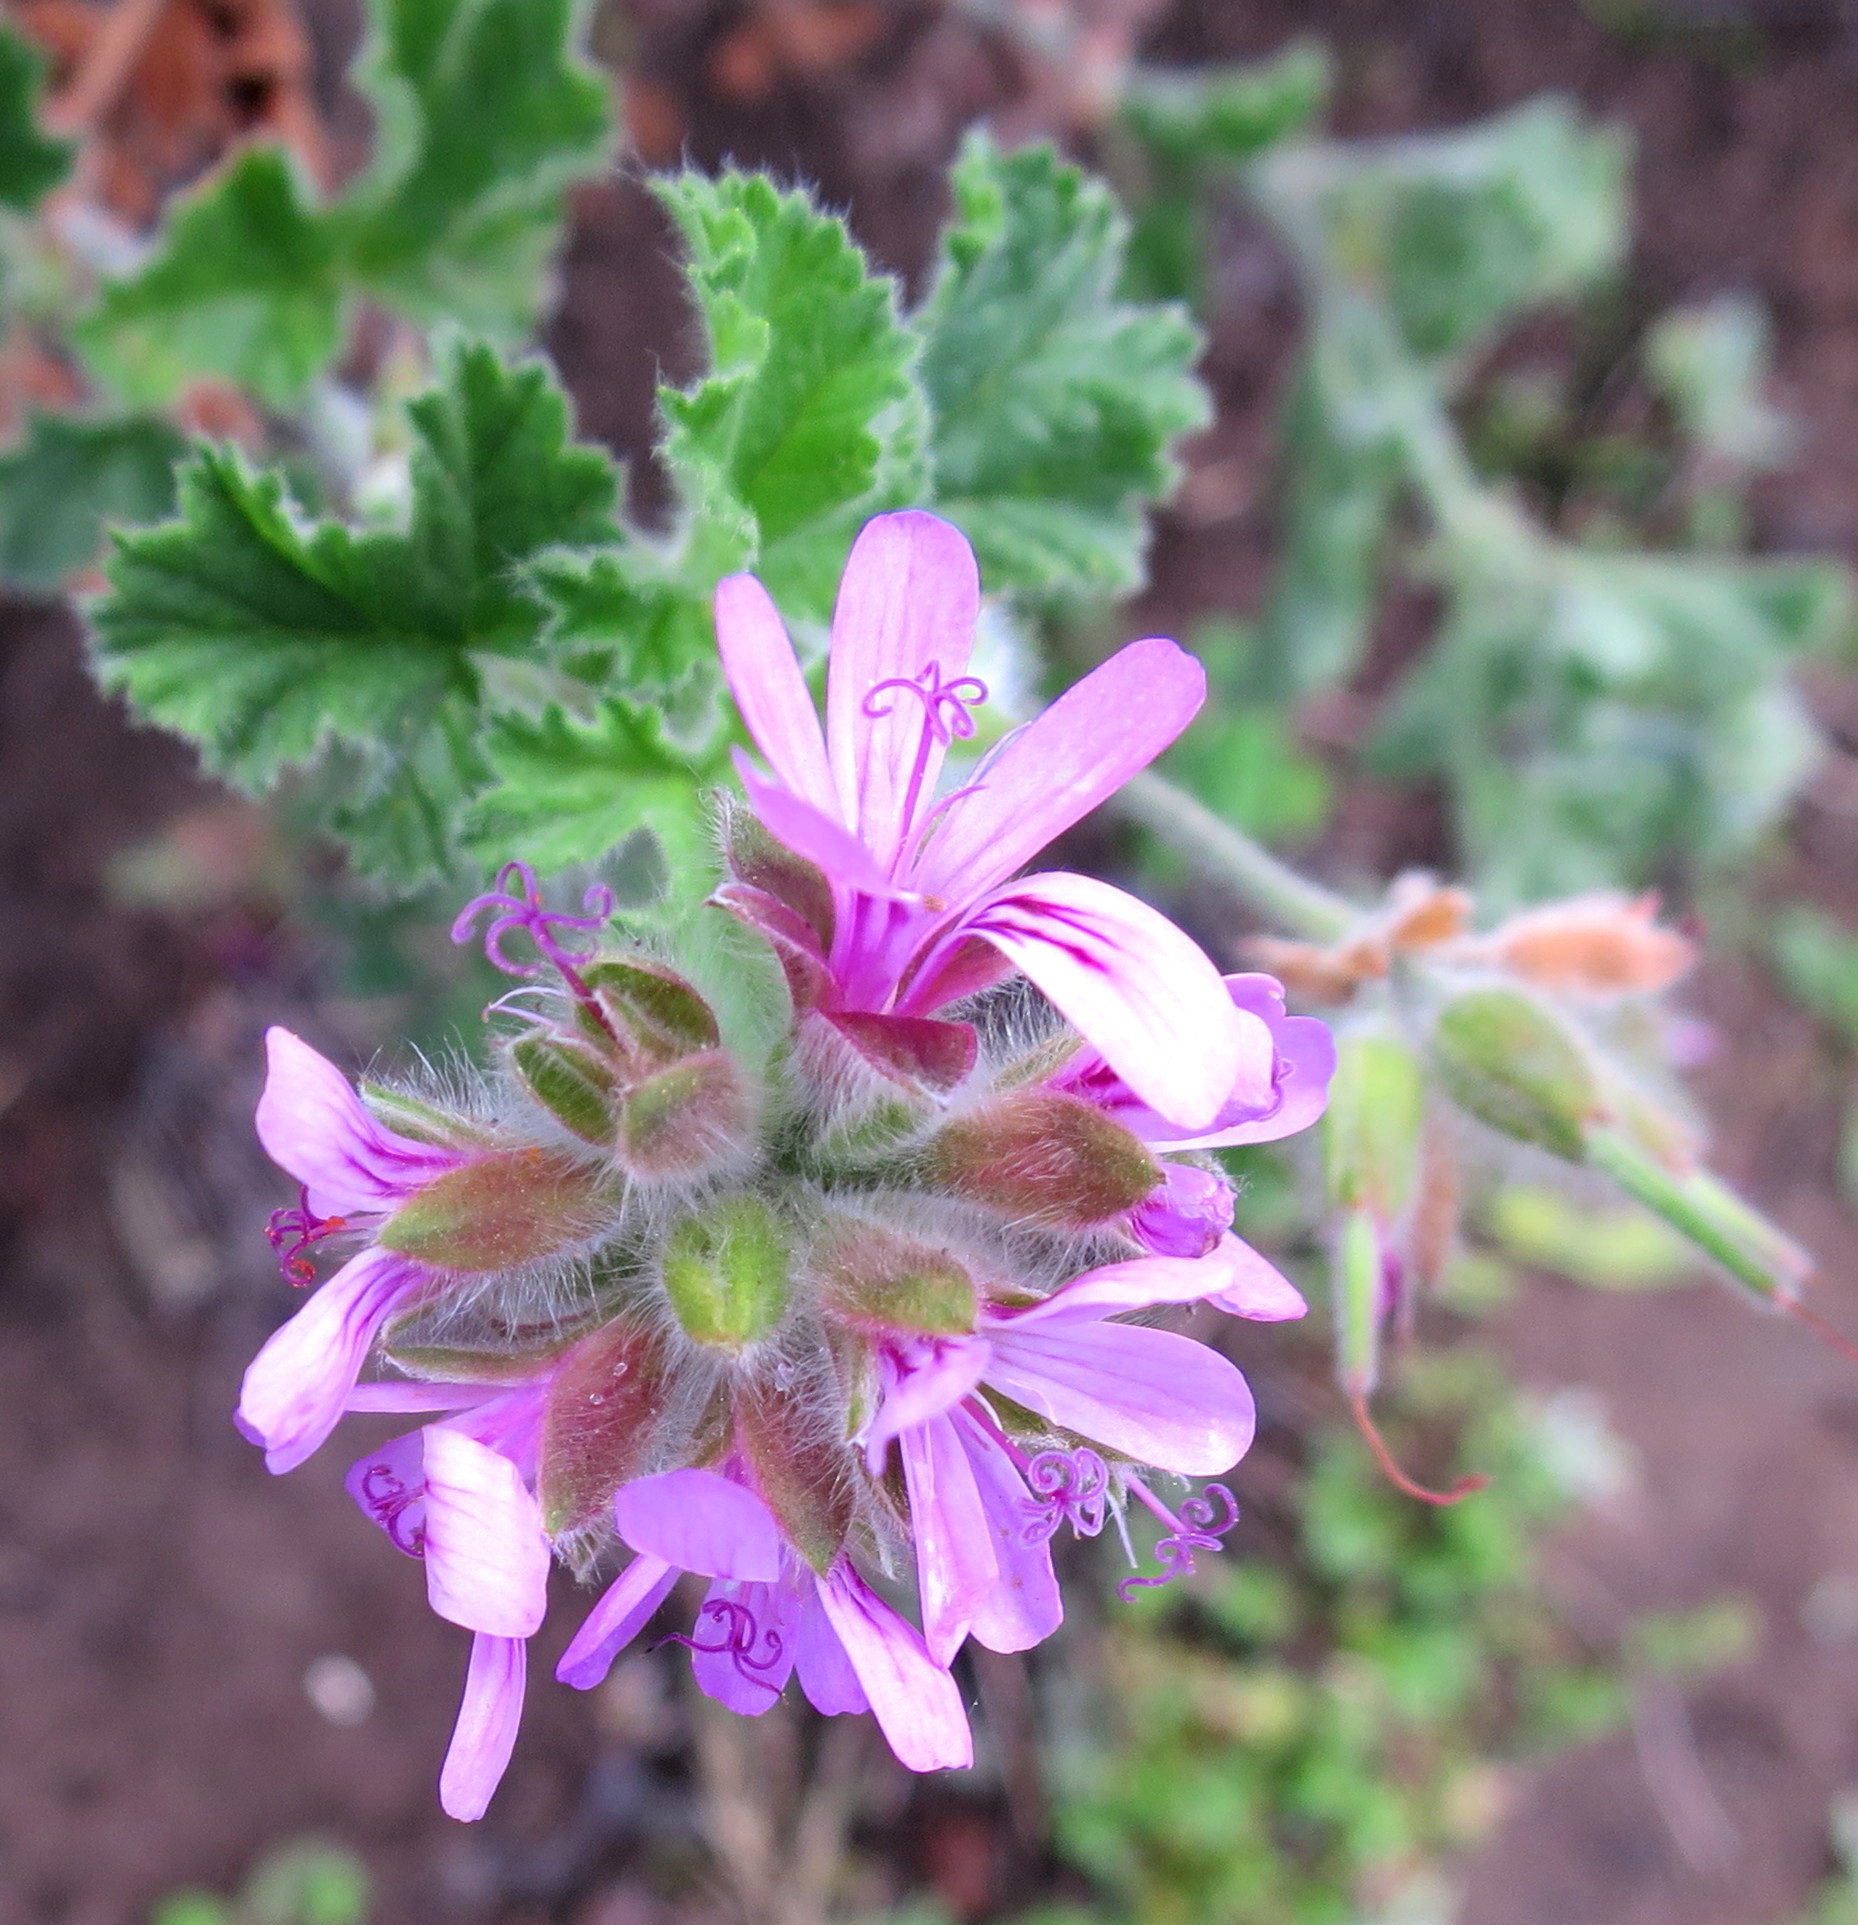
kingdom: Plantae
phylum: Tracheophyta
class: Magnoliopsida
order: Geraniales
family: Geraniaceae
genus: Pelargonium
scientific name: Pelargonium capitatum
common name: Rose scented geranium
